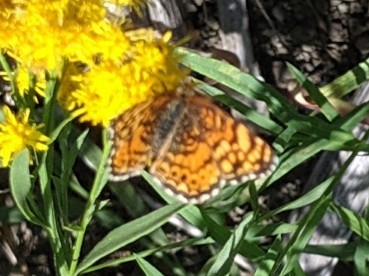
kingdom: Animalia
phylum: Arthropoda
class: Insecta
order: Lepidoptera
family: Nymphalidae
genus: Eresia
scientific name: Eresia aveyrona
